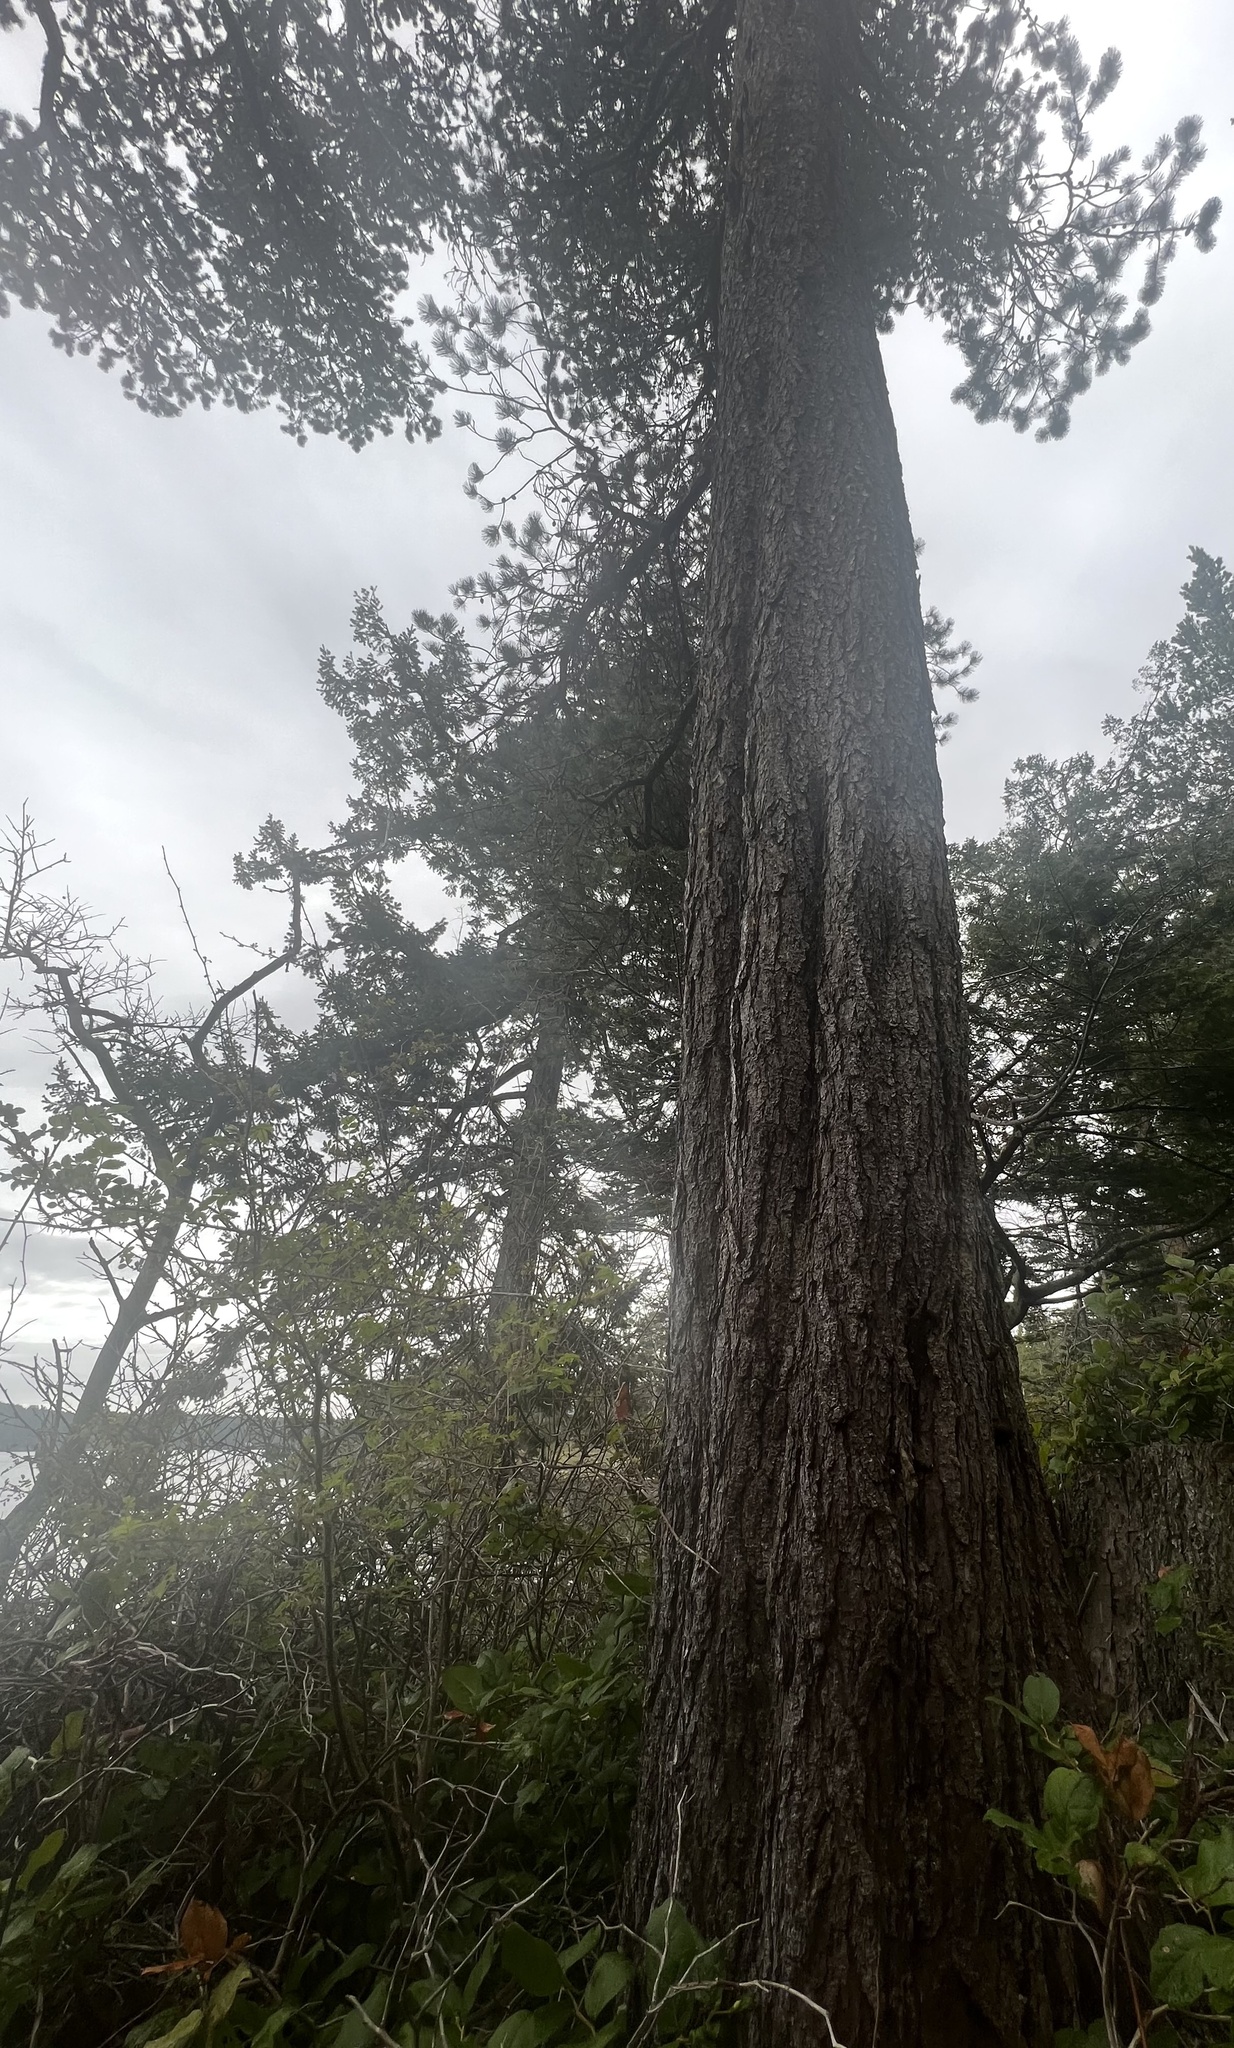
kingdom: Plantae
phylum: Tracheophyta
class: Pinopsida
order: Pinales
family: Pinaceae
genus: Pinus
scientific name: Pinus contorta
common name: Lodgepole pine
